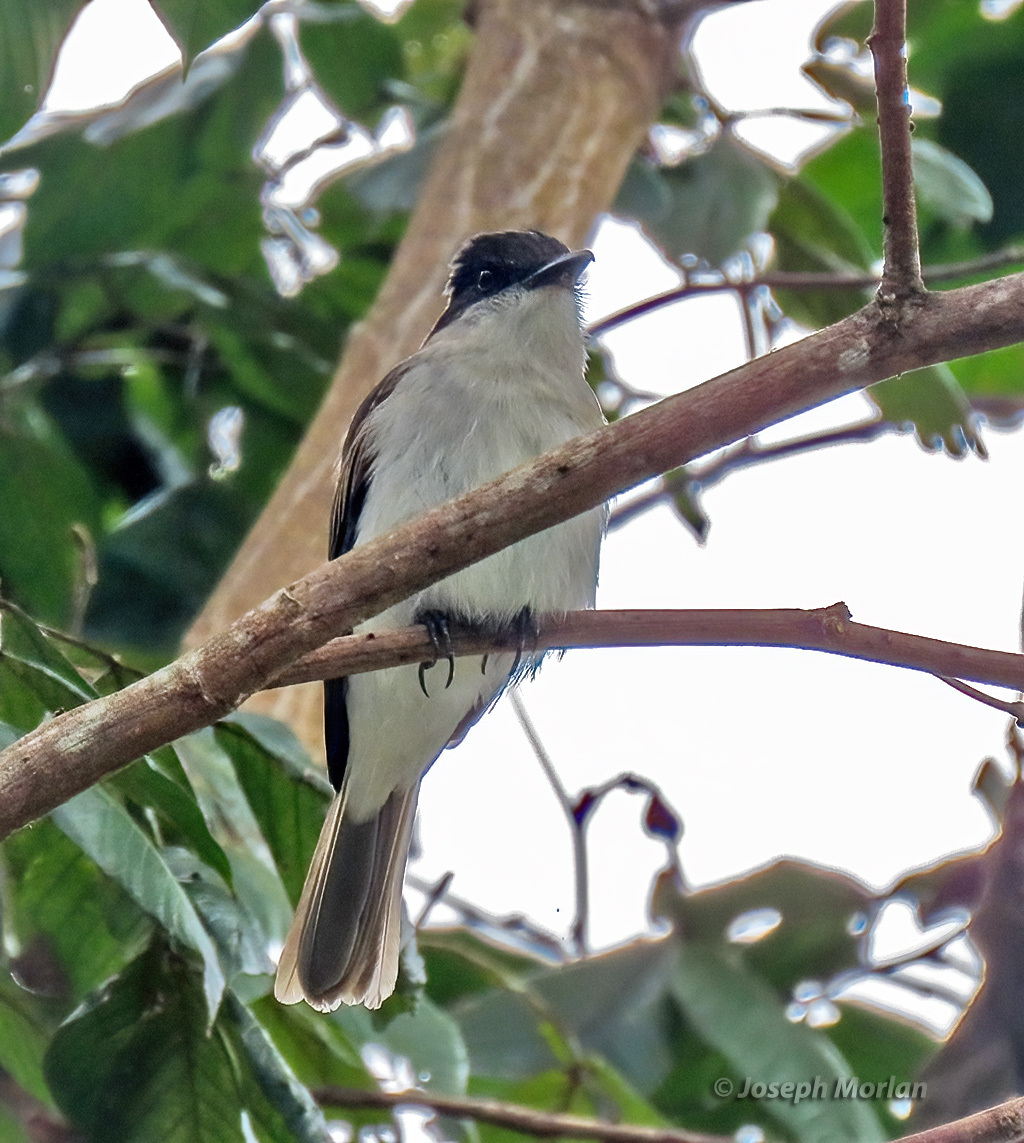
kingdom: Animalia
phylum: Chordata
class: Aves
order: Passeriformes
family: Tyrannidae
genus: Tyrannus
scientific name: Tyrannus caudifasciatus
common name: Loggerhead kingbird
